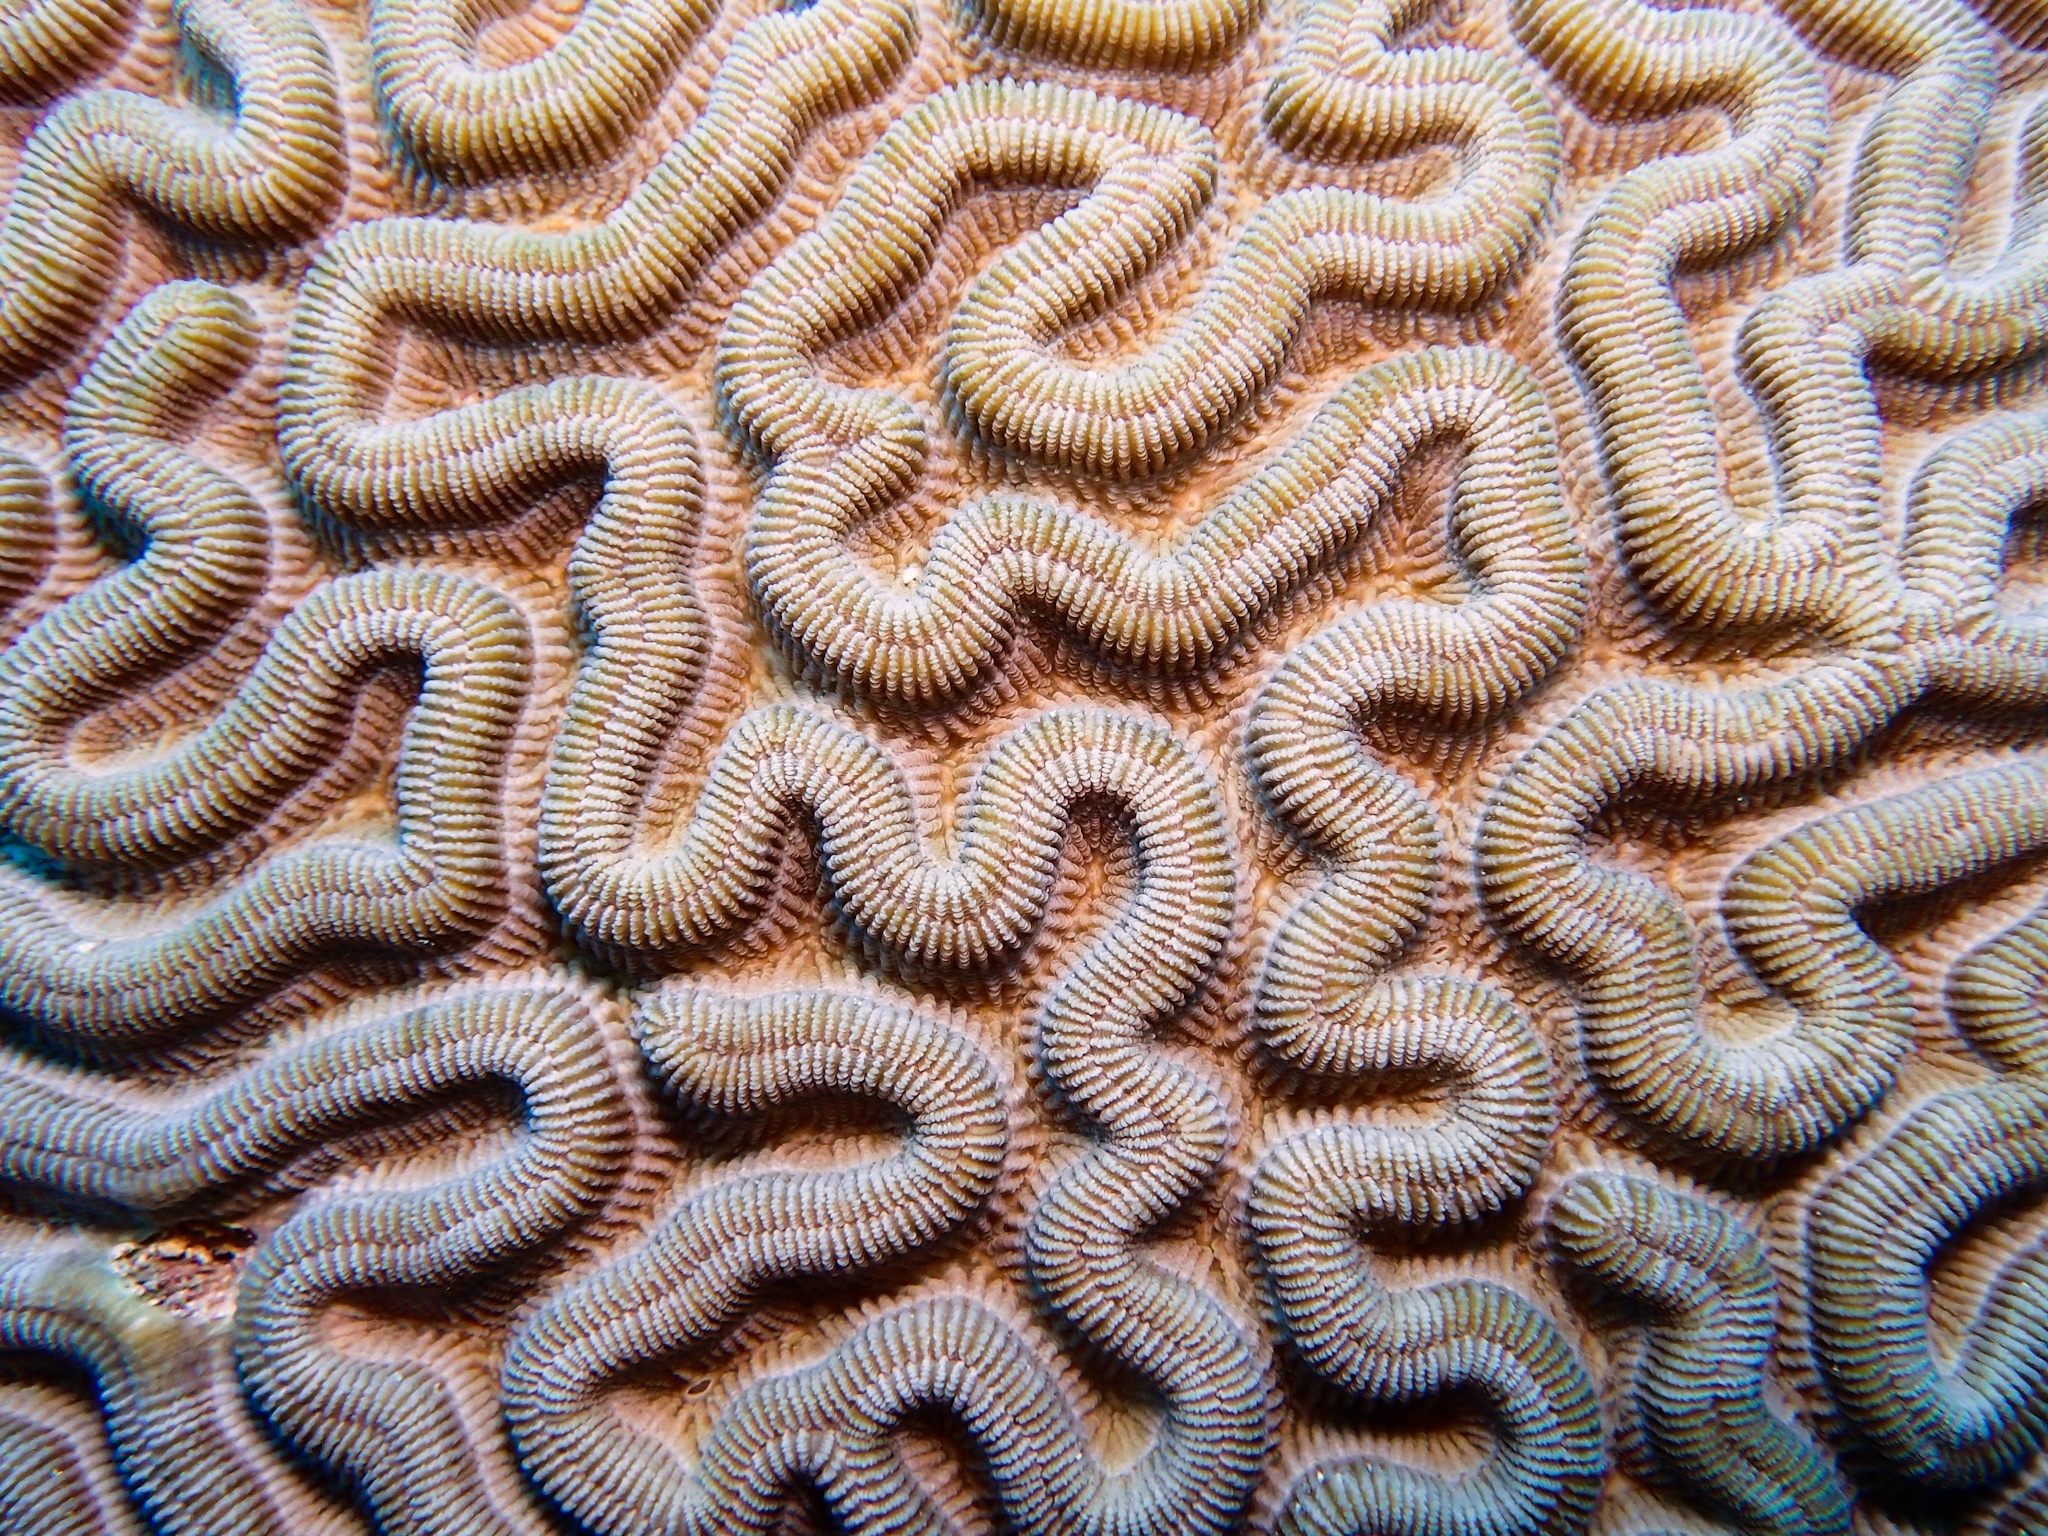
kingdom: Animalia
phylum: Cnidaria
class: Anthozoa
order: Scleractinia
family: Faviidae
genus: Colpophyllia
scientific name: Colpophyllia natans
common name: Boulder brain coral
